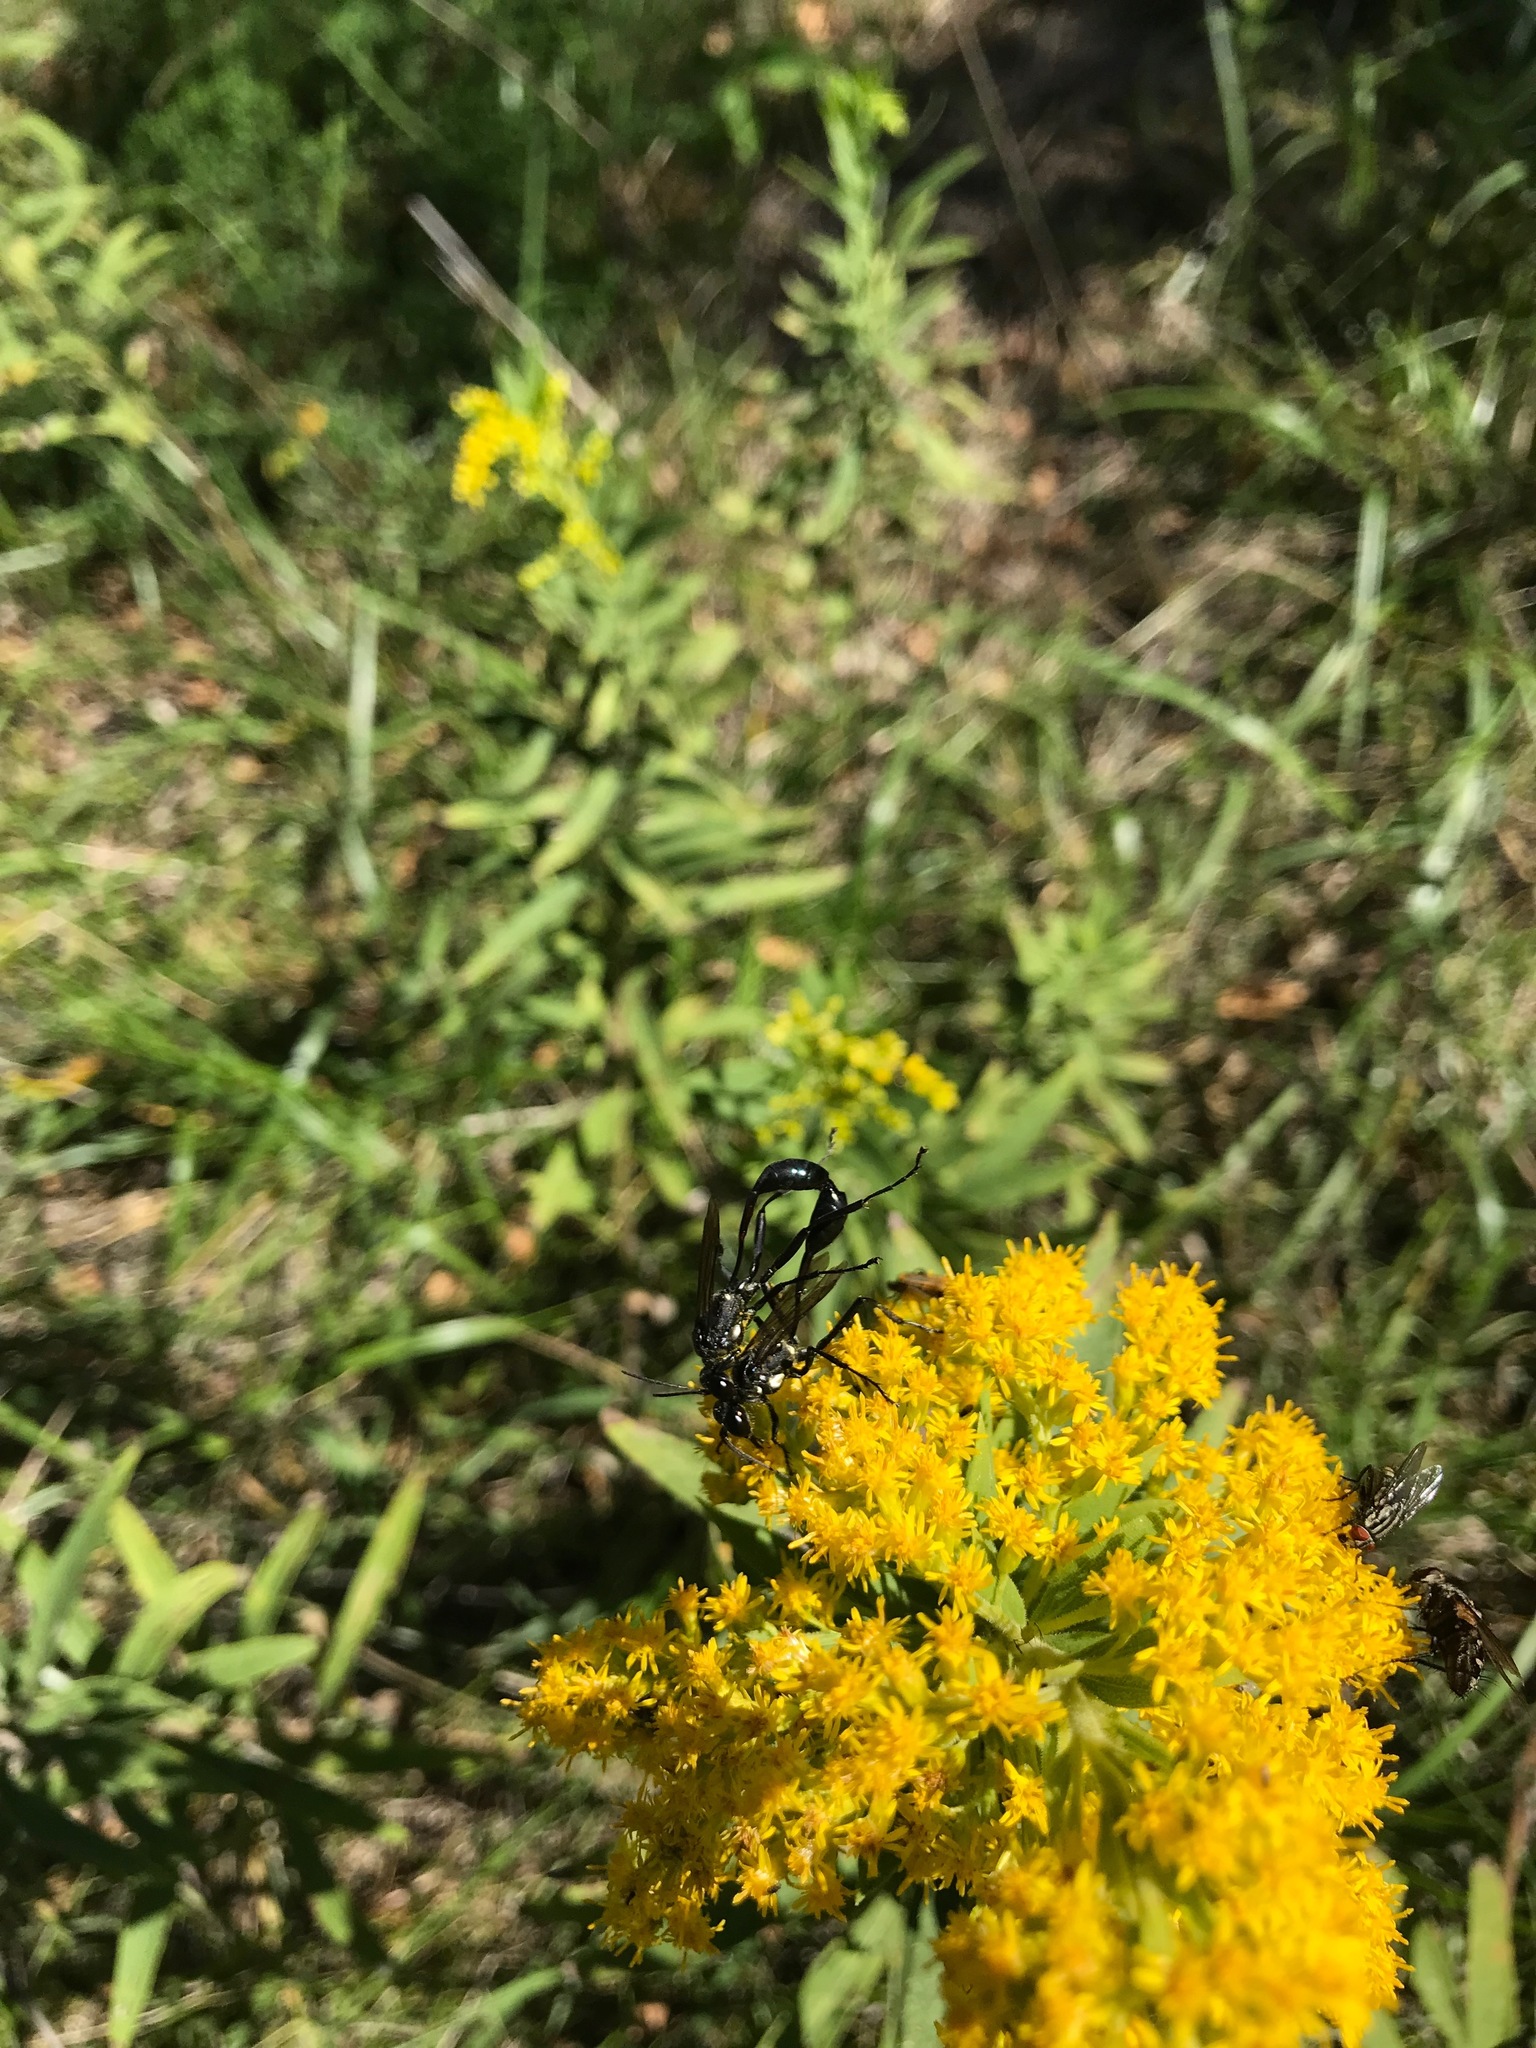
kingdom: Animalia
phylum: Arthropoda
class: Insecta
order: Hymenoptera
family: Sphecidae
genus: Eremnophila
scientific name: Eremnophila aureonotata
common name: Gold-marked thread-waisted wasp
